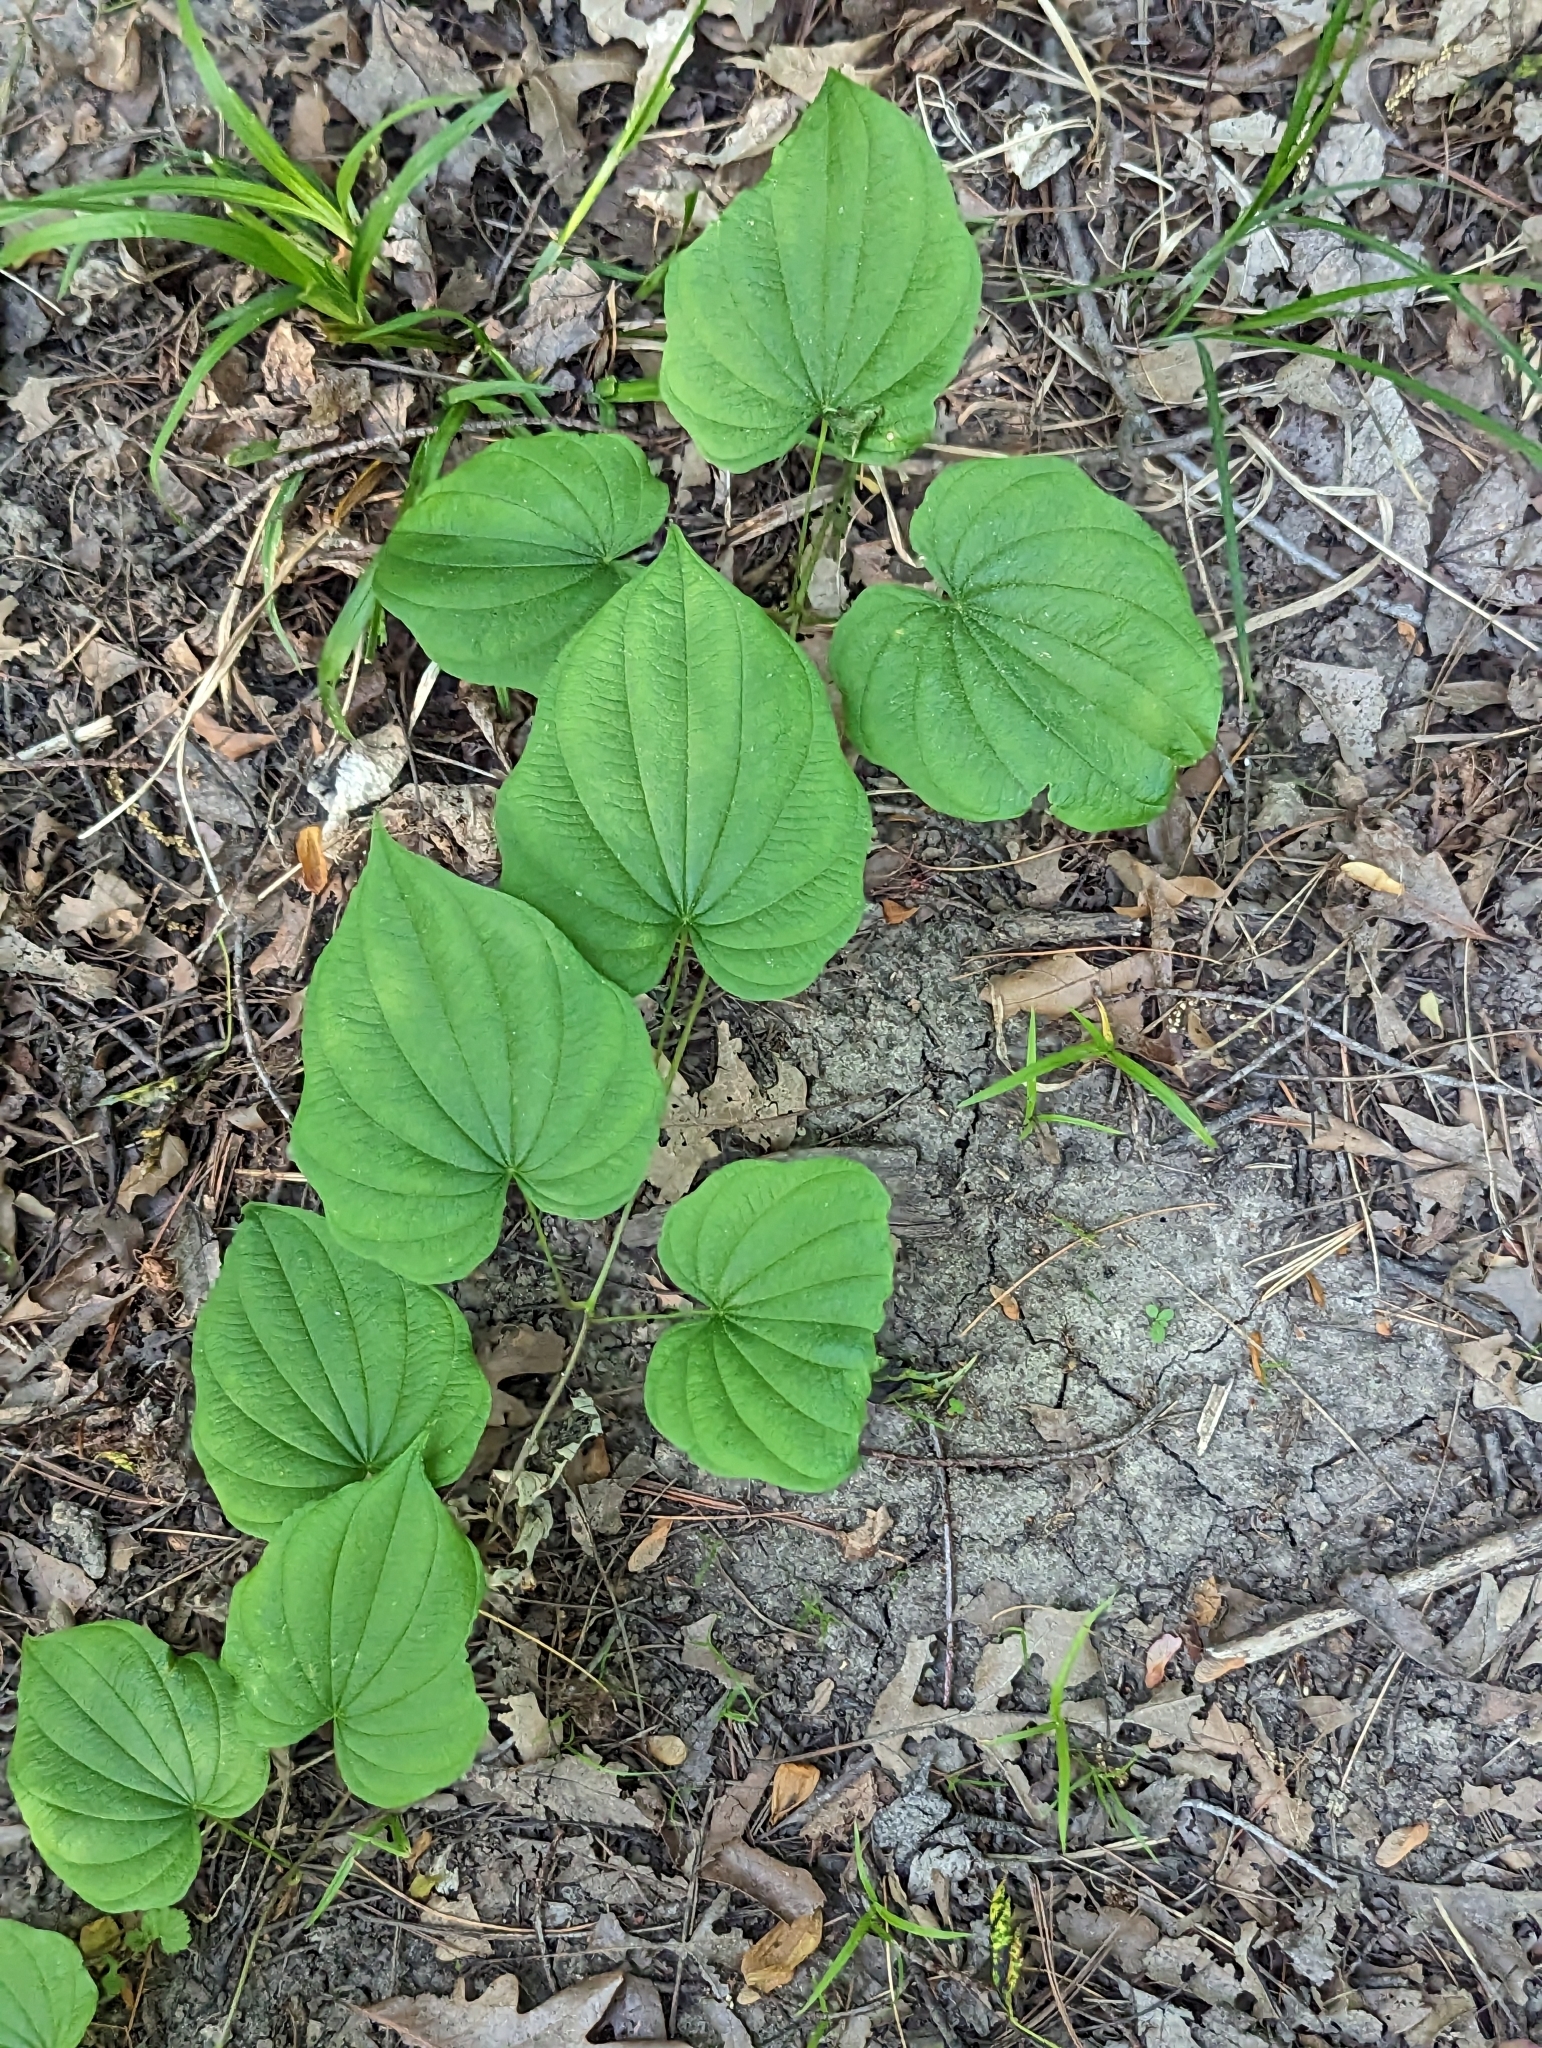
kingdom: Plantae
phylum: Tracheophyta
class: Liliopsida
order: Dioscoreales
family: Dioscoreaceae
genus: Dioscorea
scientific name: Dioscorea villosa
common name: Wild yam
